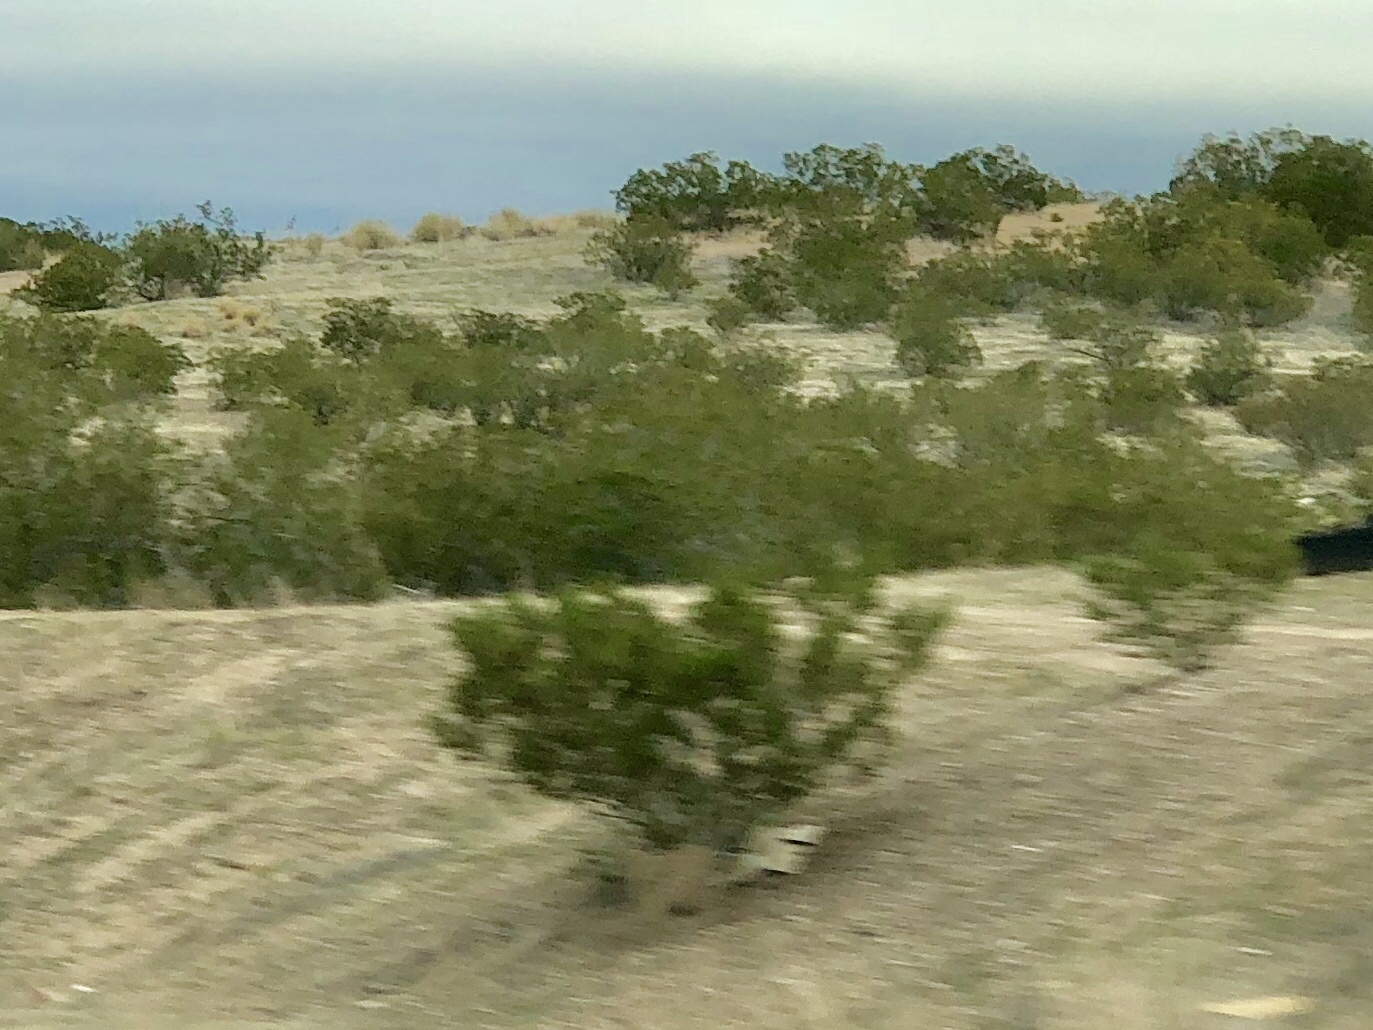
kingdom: Plantae
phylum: Tracheophyta
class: Magnoliopsida
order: Zygophyllales
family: Zygophyllaceae
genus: Larrea
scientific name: Larrea tridentata
